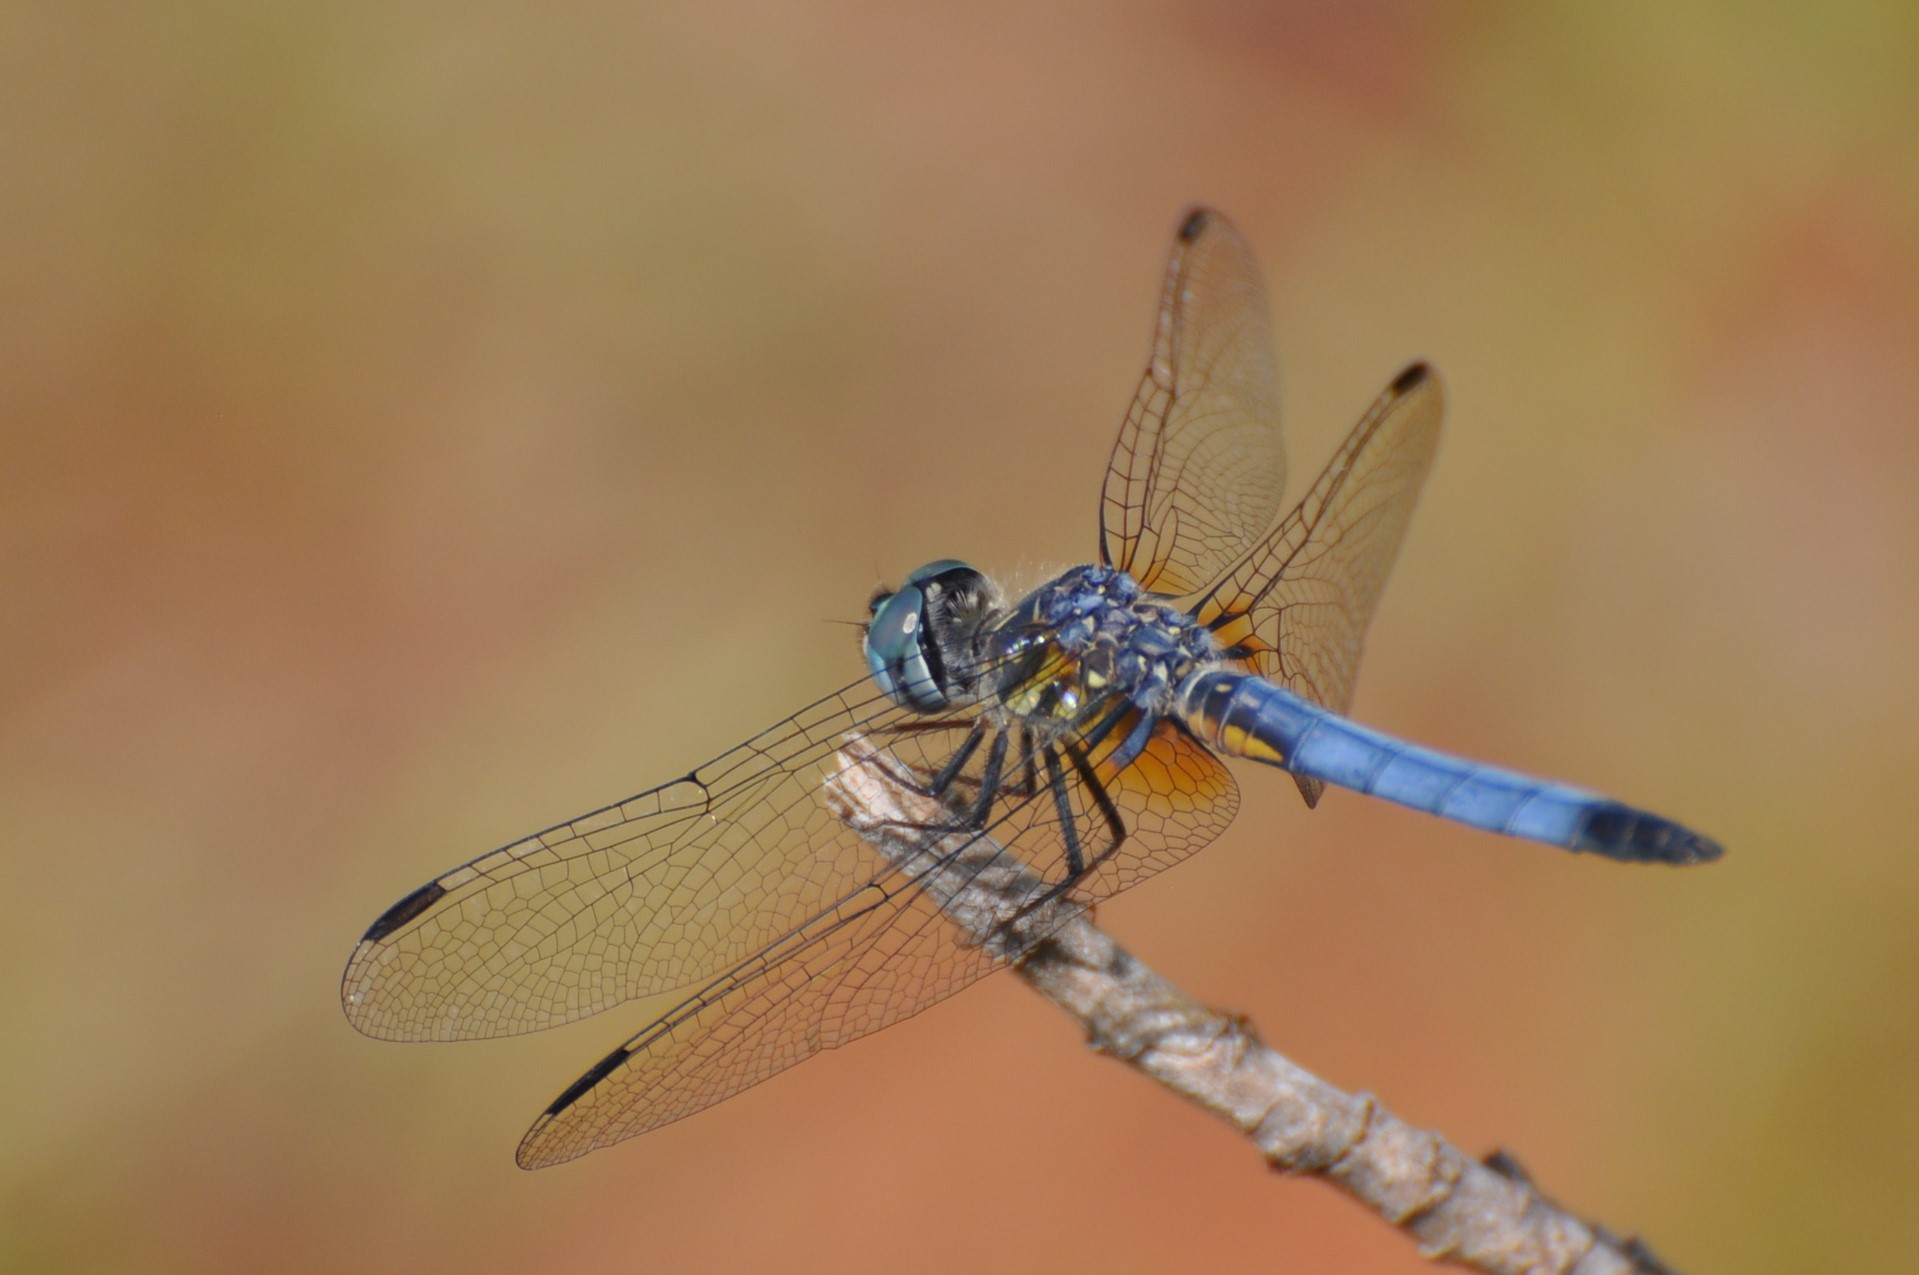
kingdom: Animalia
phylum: Arthropoda
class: Insecta
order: Odonata
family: Libellulidae
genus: Pachydiplax
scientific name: Pachydiplax longipennis
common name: Blue dasher
